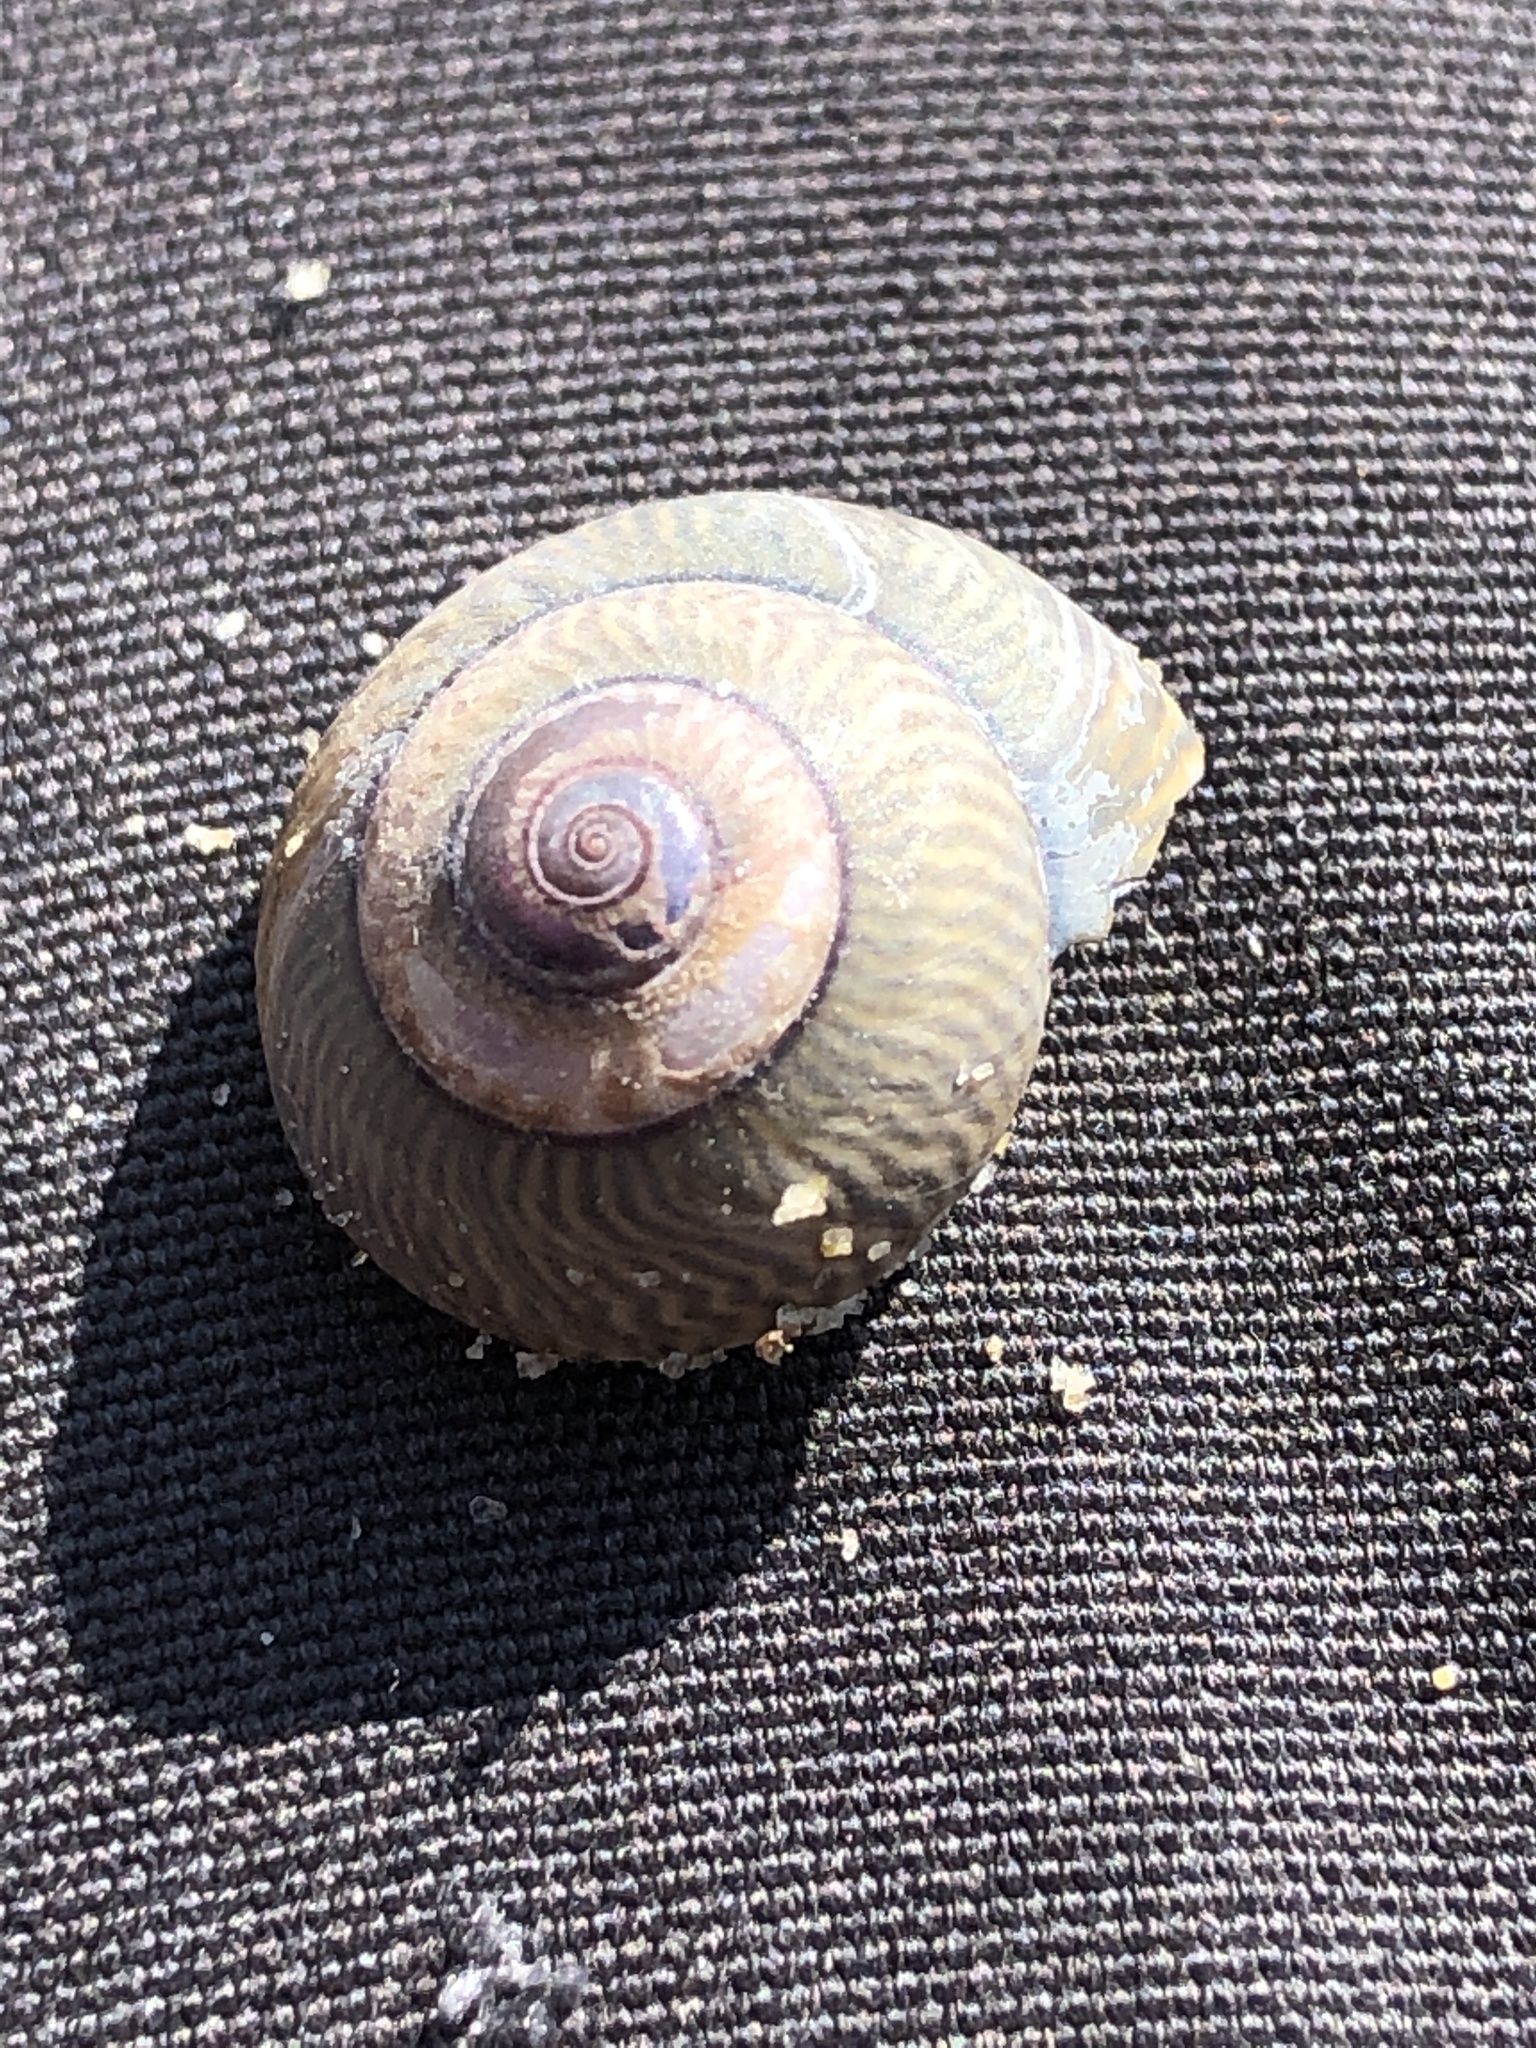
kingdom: Animalia
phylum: Mollusca
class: Gastropoda
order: Trochida
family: Trochidae
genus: Umbonium
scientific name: Umbonium thomasi
